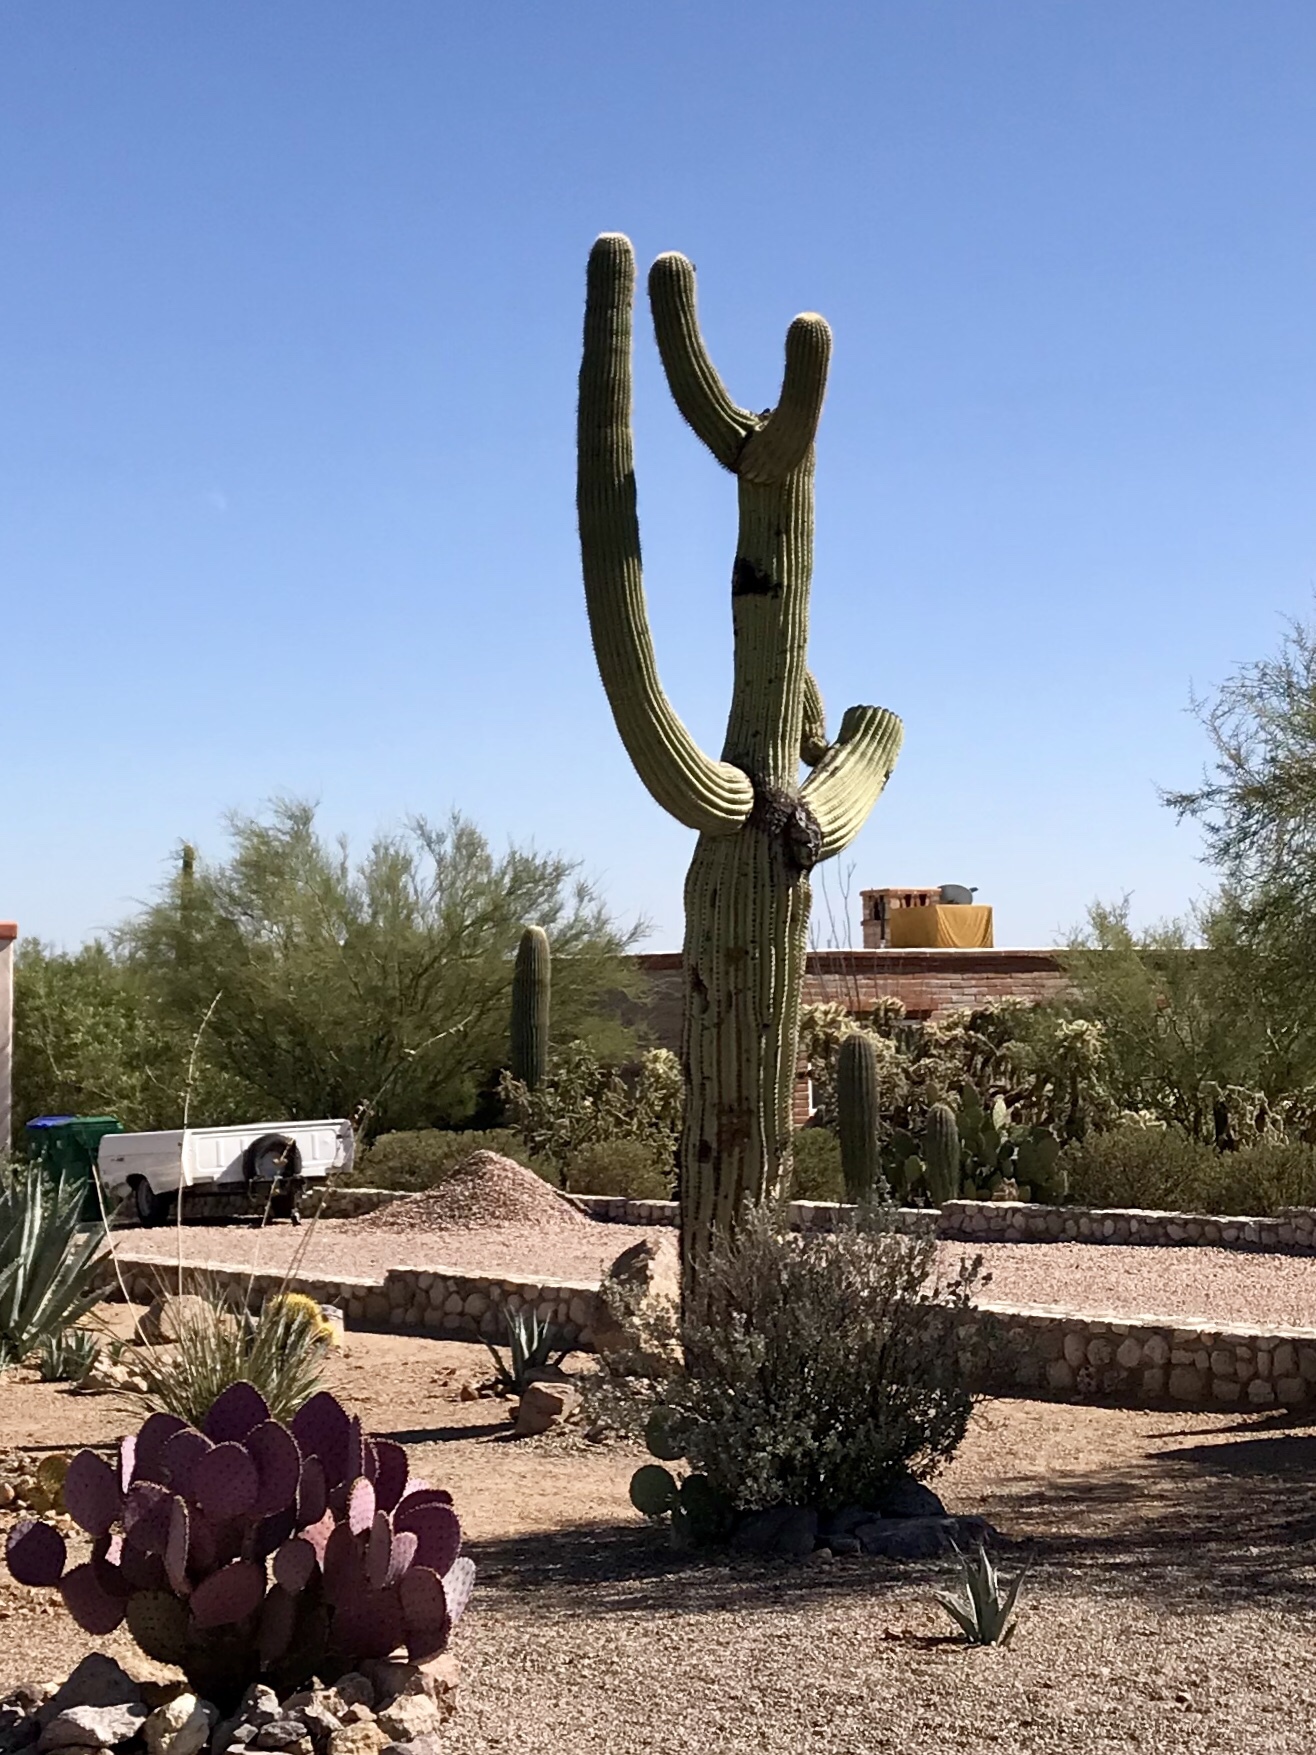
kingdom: Plantae
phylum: Tracheophyta
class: Magnoliopsida
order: Caryophyllales
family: Cactaceae
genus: Carnegiea
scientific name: Carnegiea gigantea
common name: Saguaro
